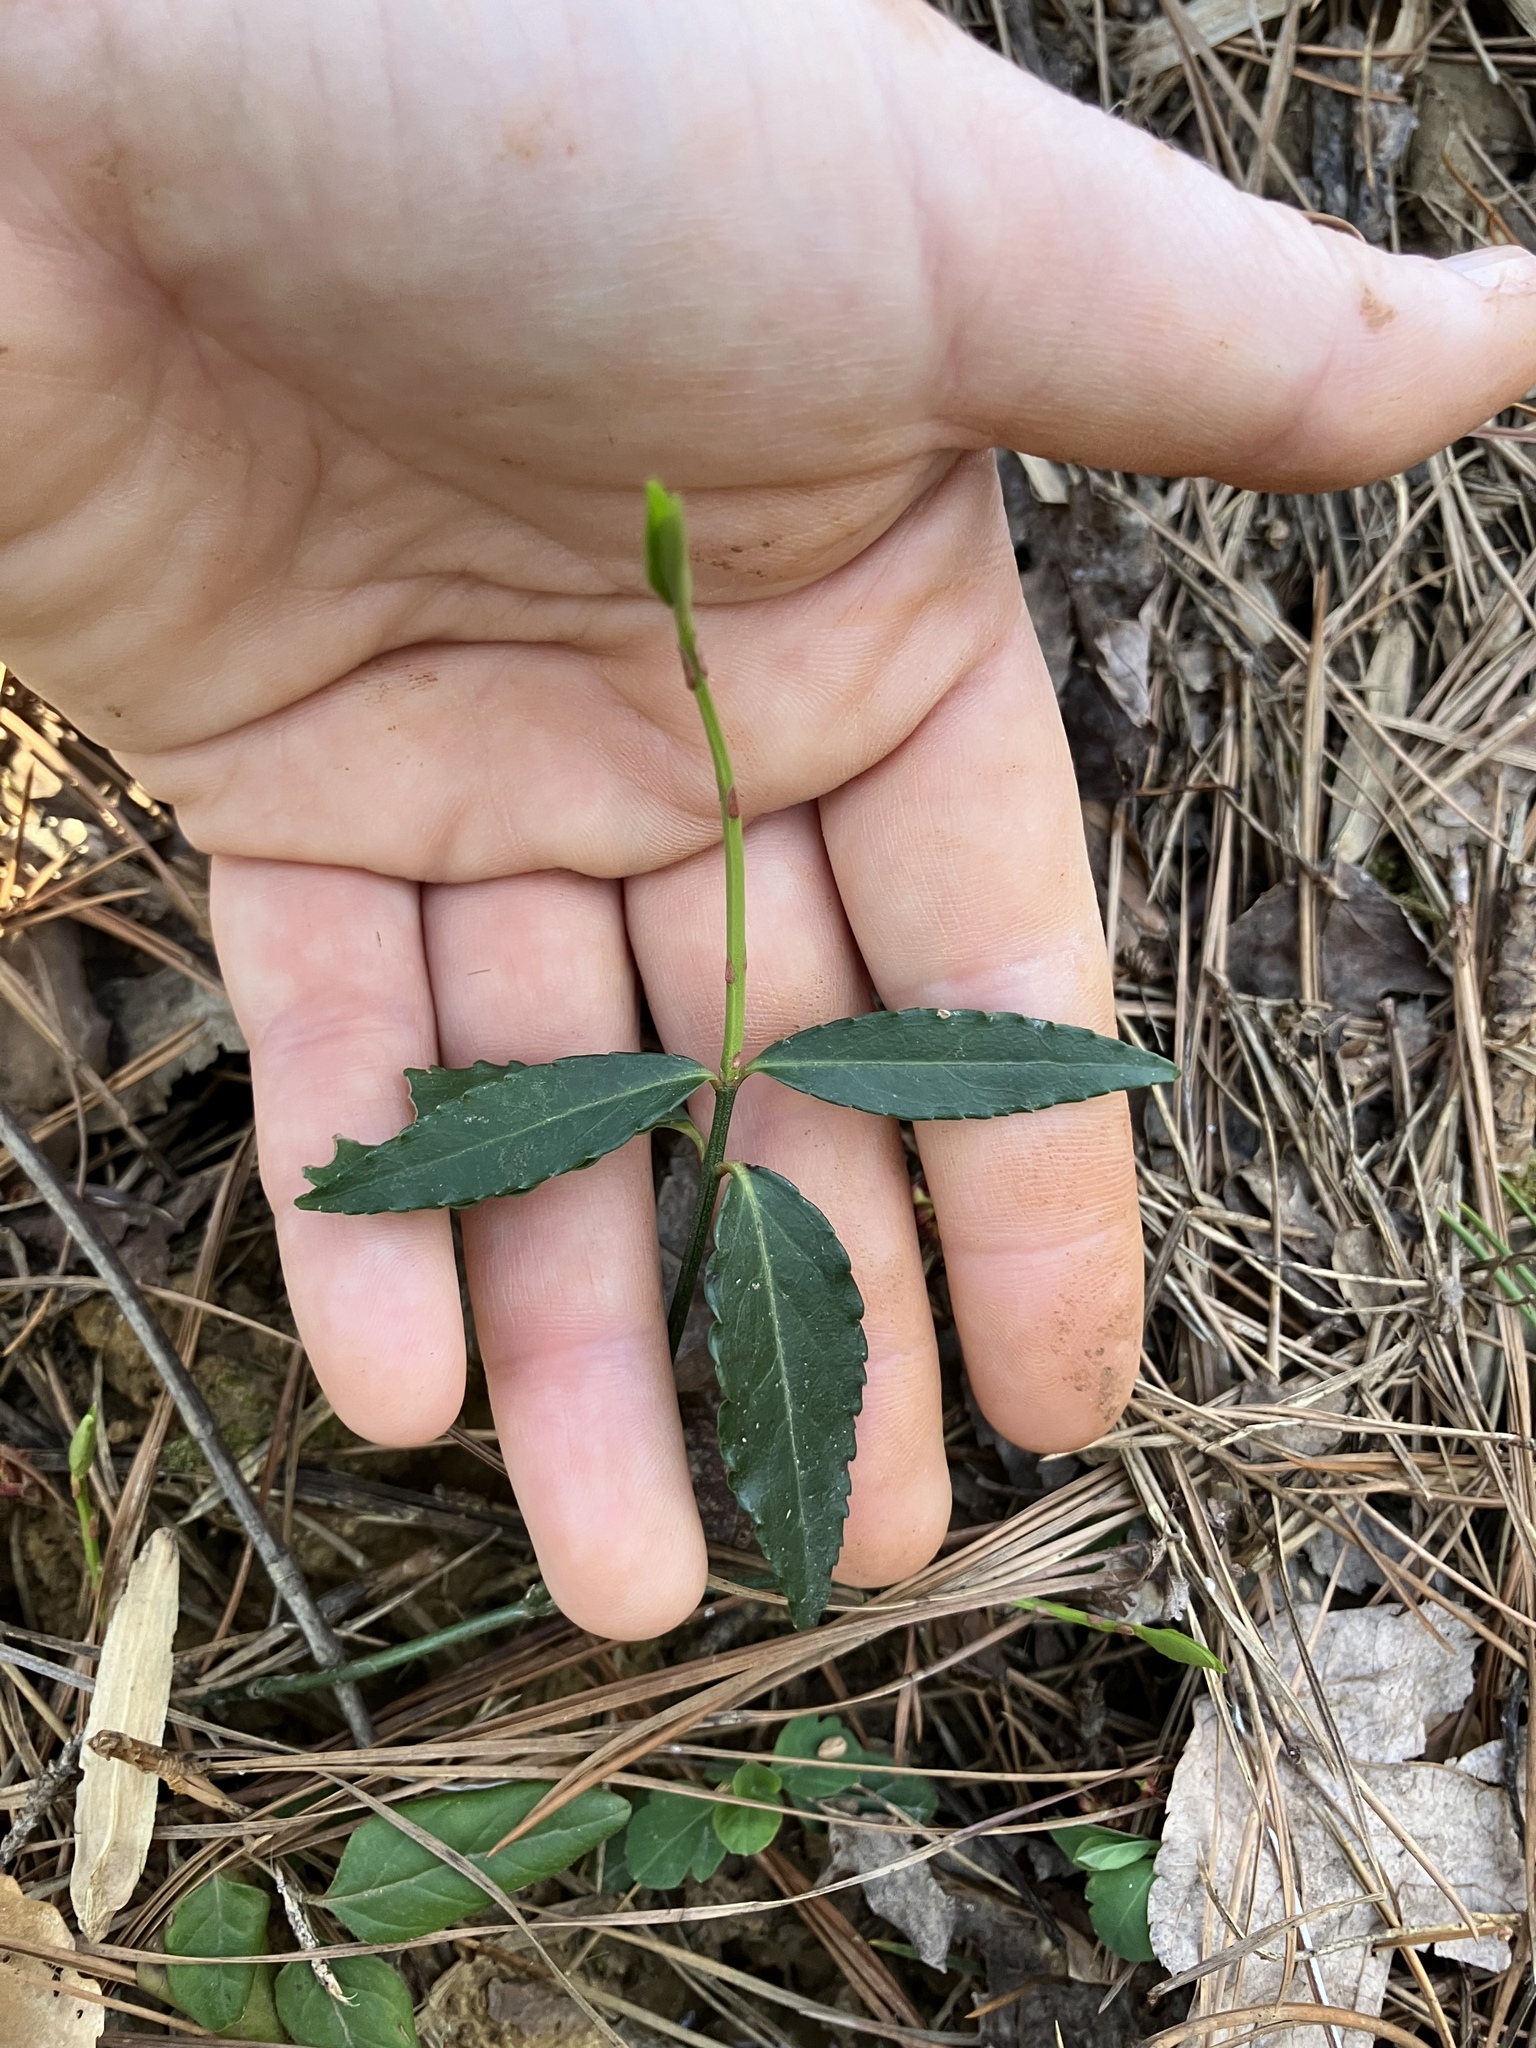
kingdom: Plantae
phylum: Tracheophyta
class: Magnoliopsida
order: Celastrales
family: Celastraceae
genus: Euonymus
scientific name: Euonymus americanus
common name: Bursting-heart
